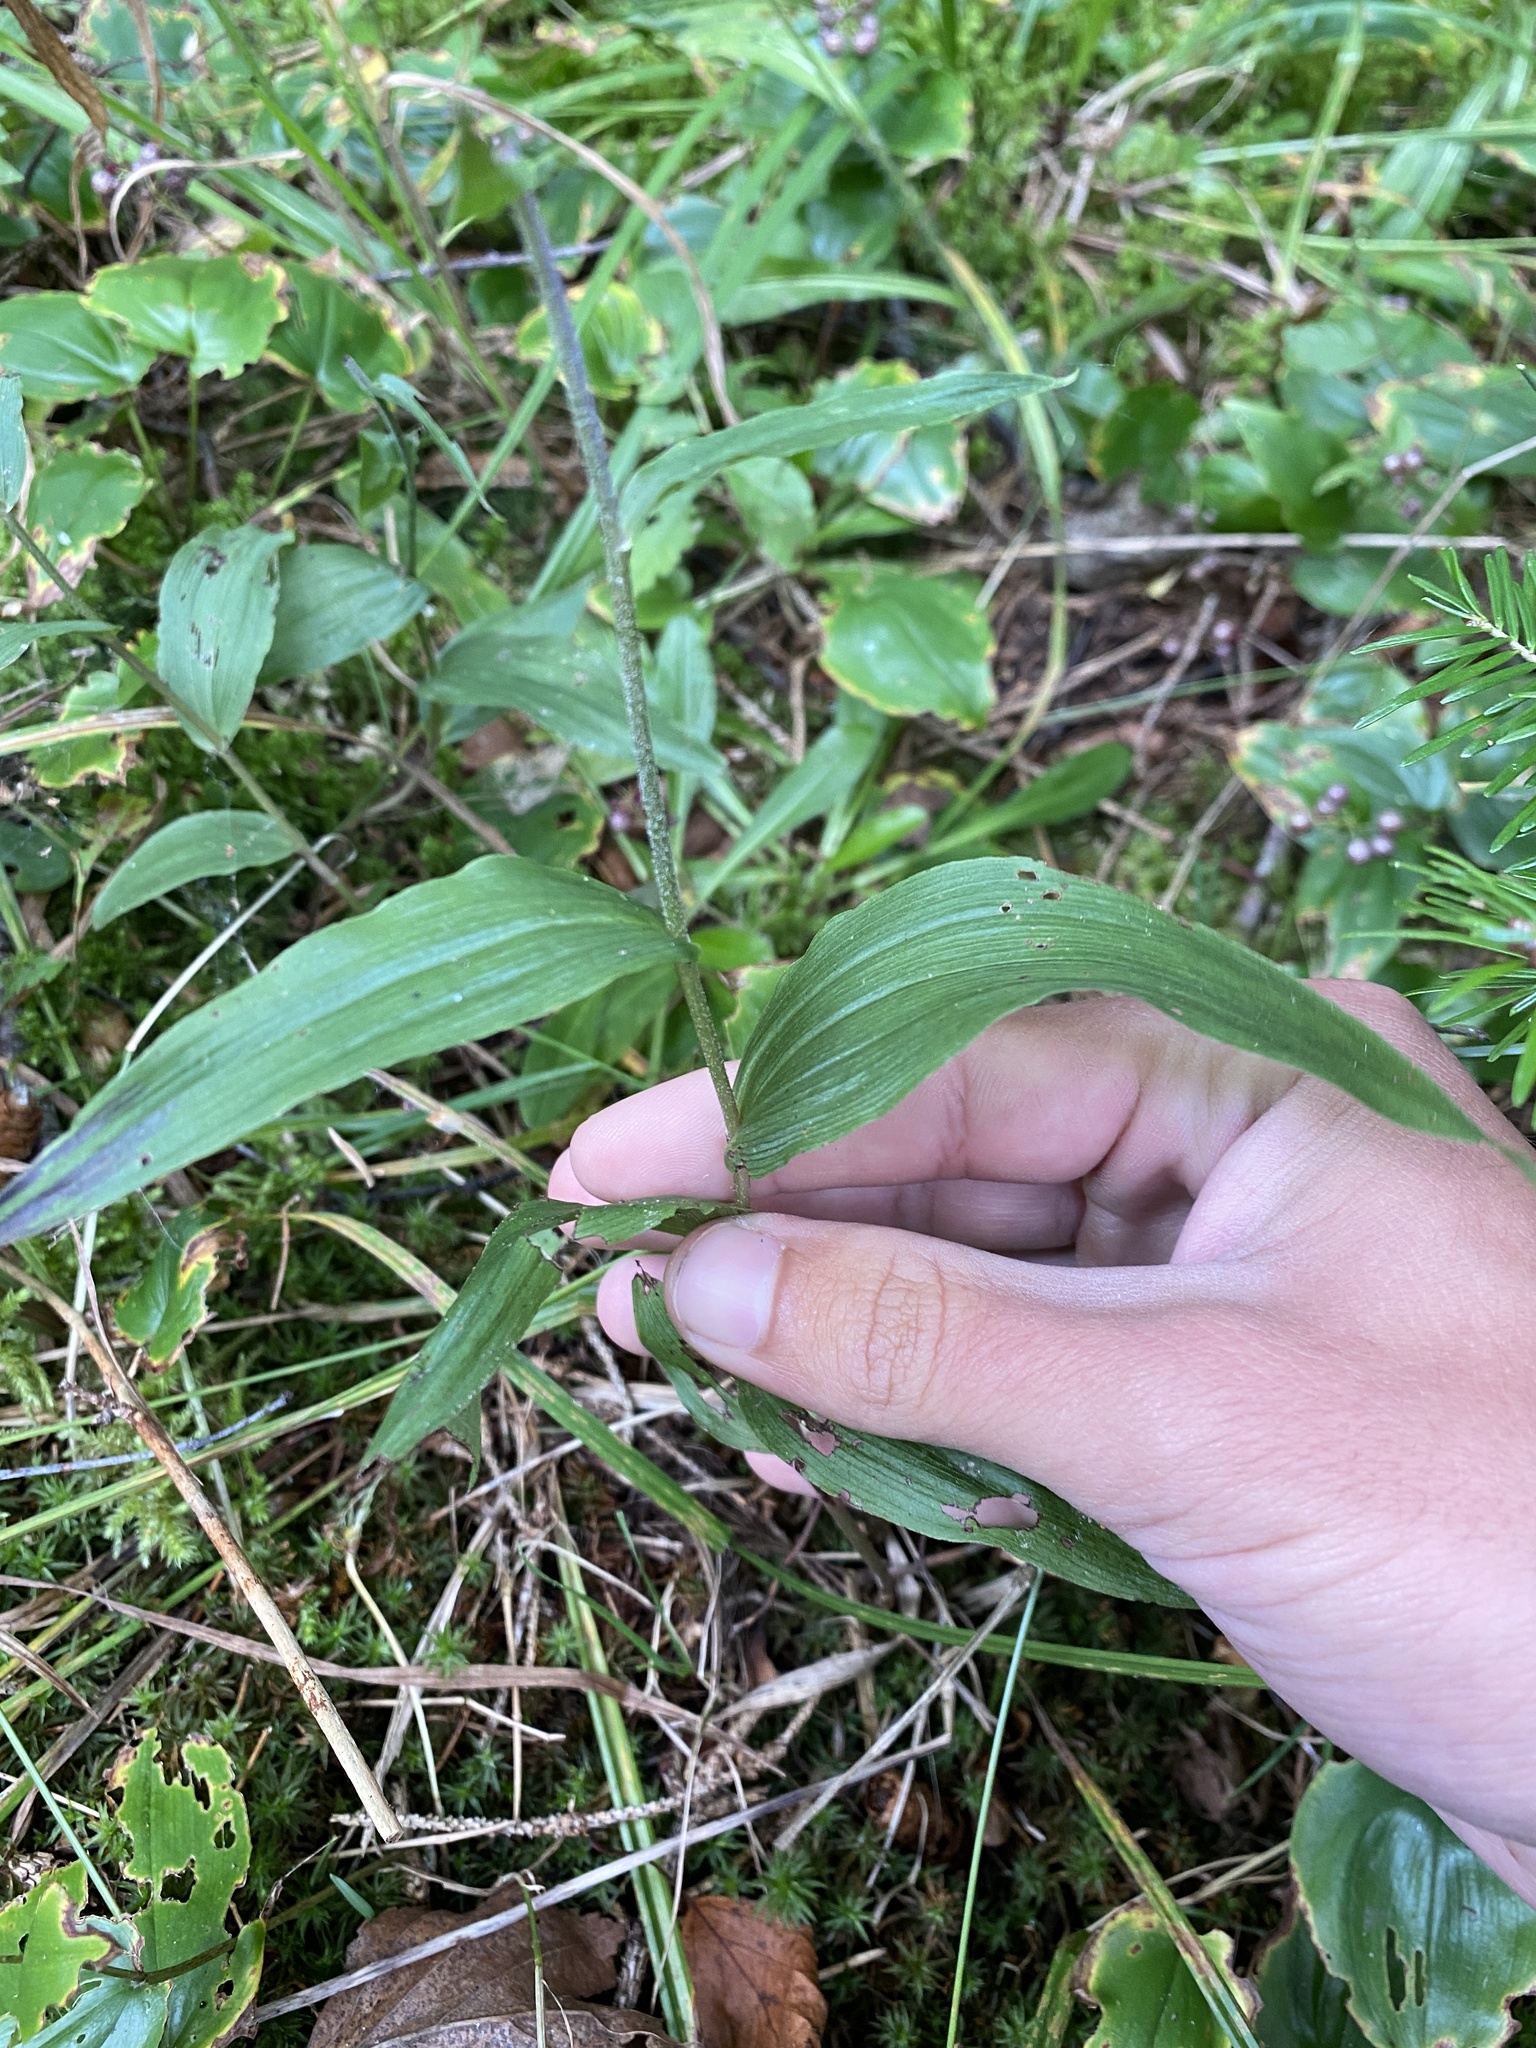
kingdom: Plantae
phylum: Tracheophyta
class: Liliopsida
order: Asparagales
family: Orchidaceae
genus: Epipactis
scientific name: Epipactis helleborine
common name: Broad-leaved helleborine
